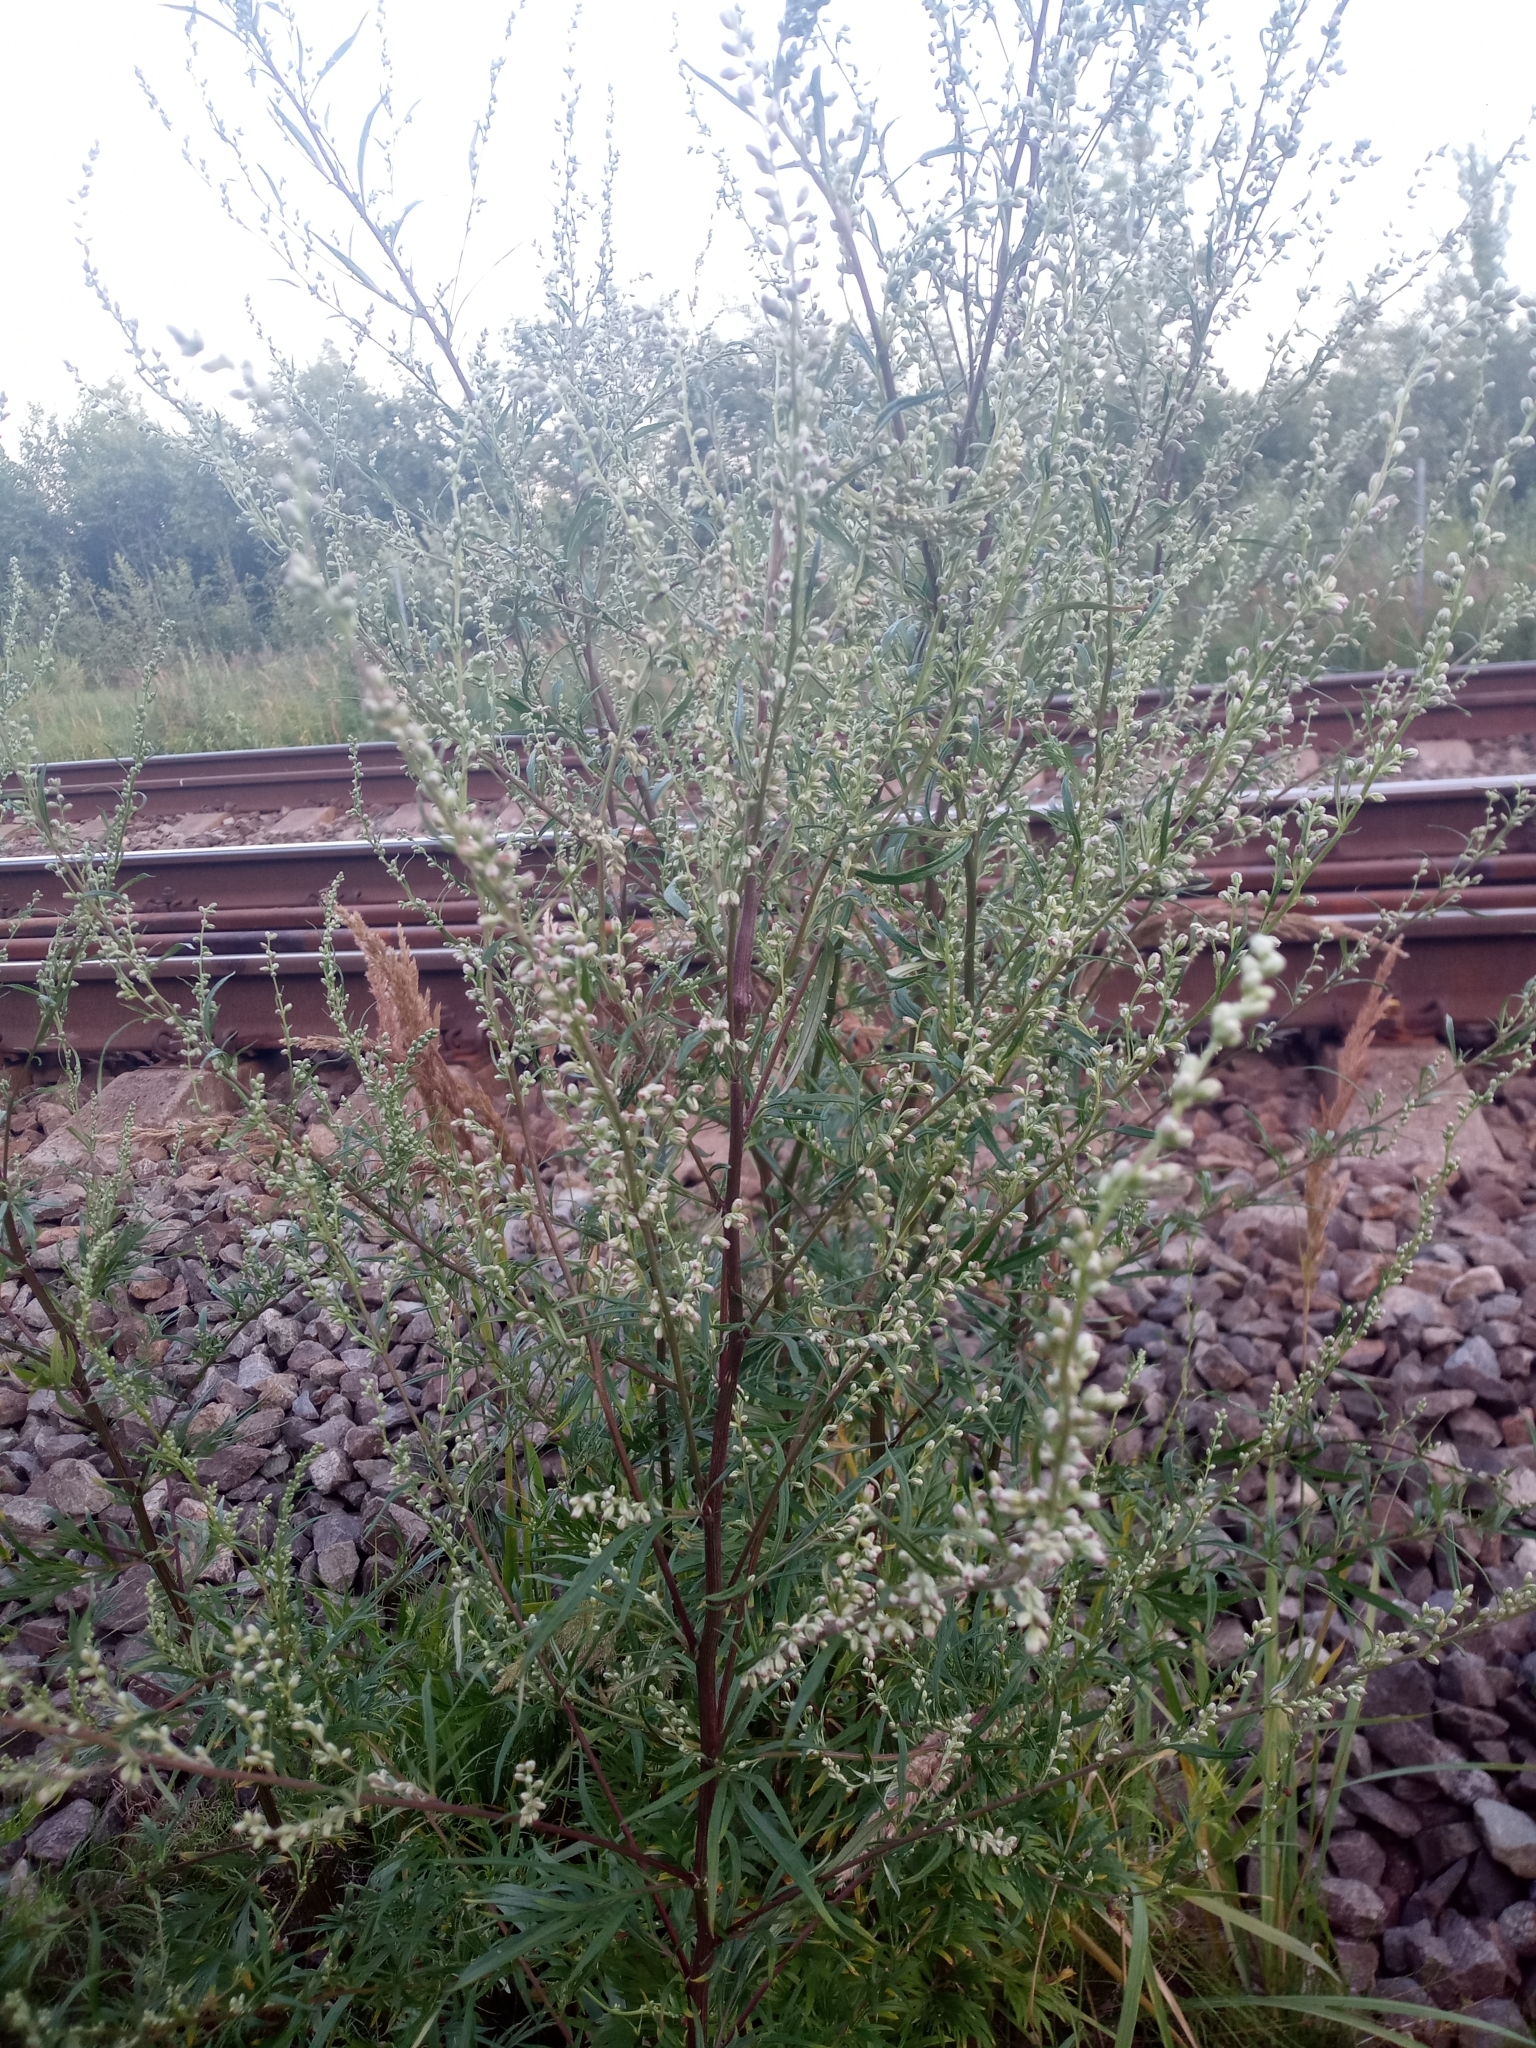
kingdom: Plantae
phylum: Tracheophyta
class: Magnoliopsida
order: Asterales
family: Asteraceae
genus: Artemisia
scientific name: Artemisia vulgaris
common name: Mugwort
